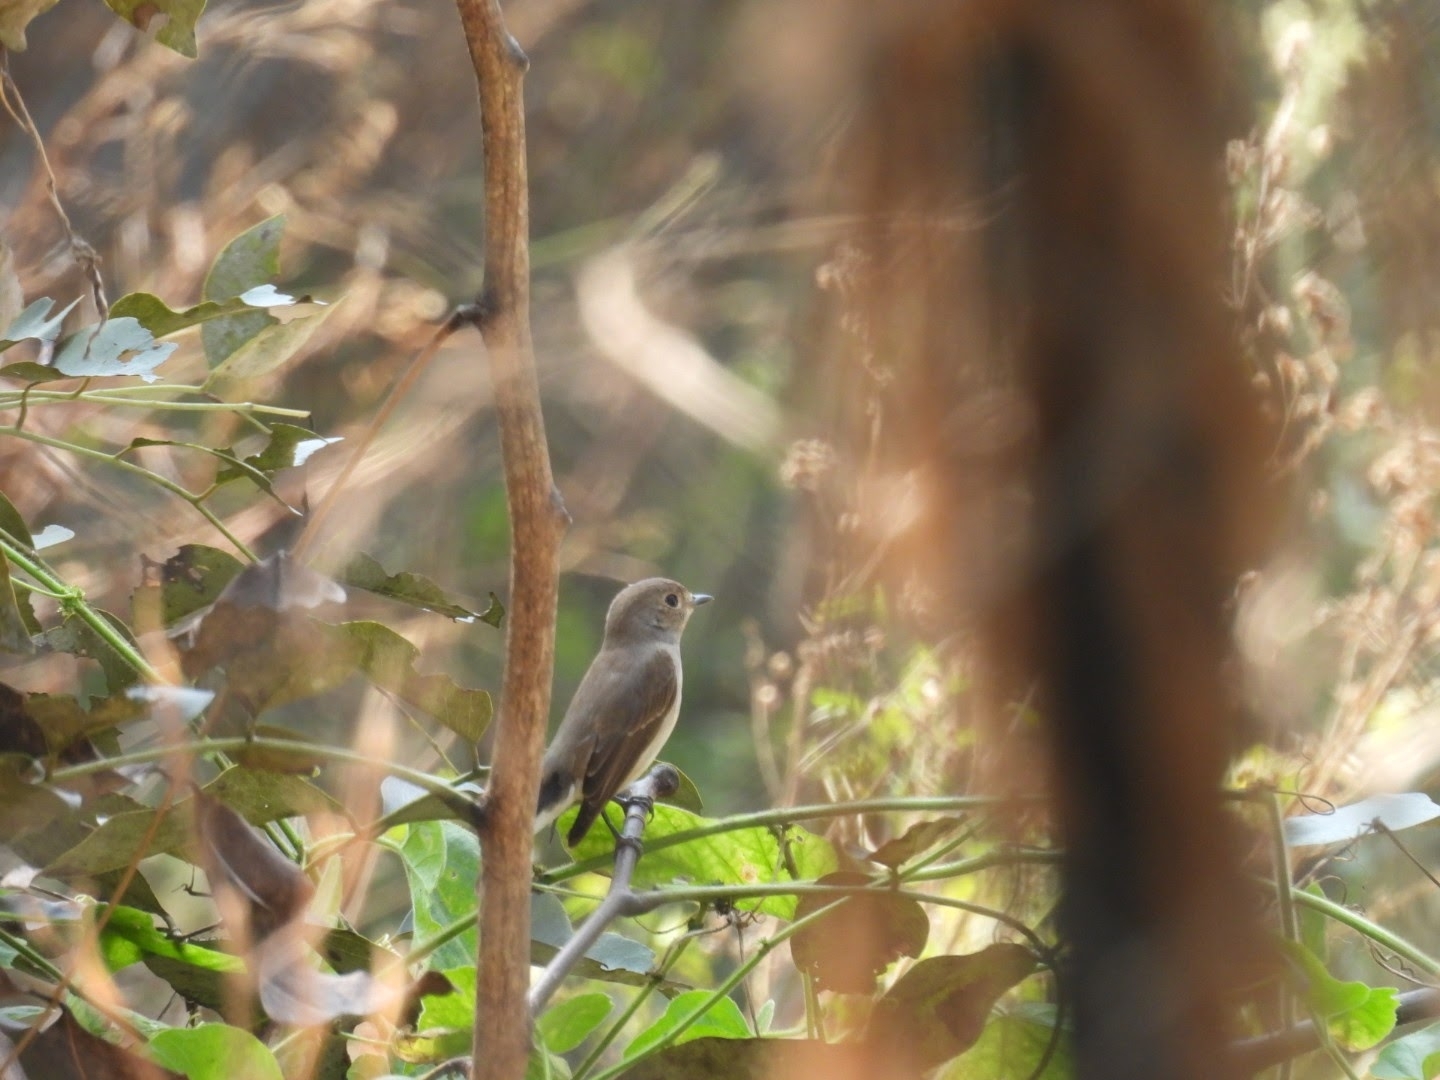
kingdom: Animalia
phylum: Chordata
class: Aves
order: Passeriformes
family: Muscicapidae
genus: Ficedula
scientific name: Ficedula albicilla
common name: Taiga flycatcher
